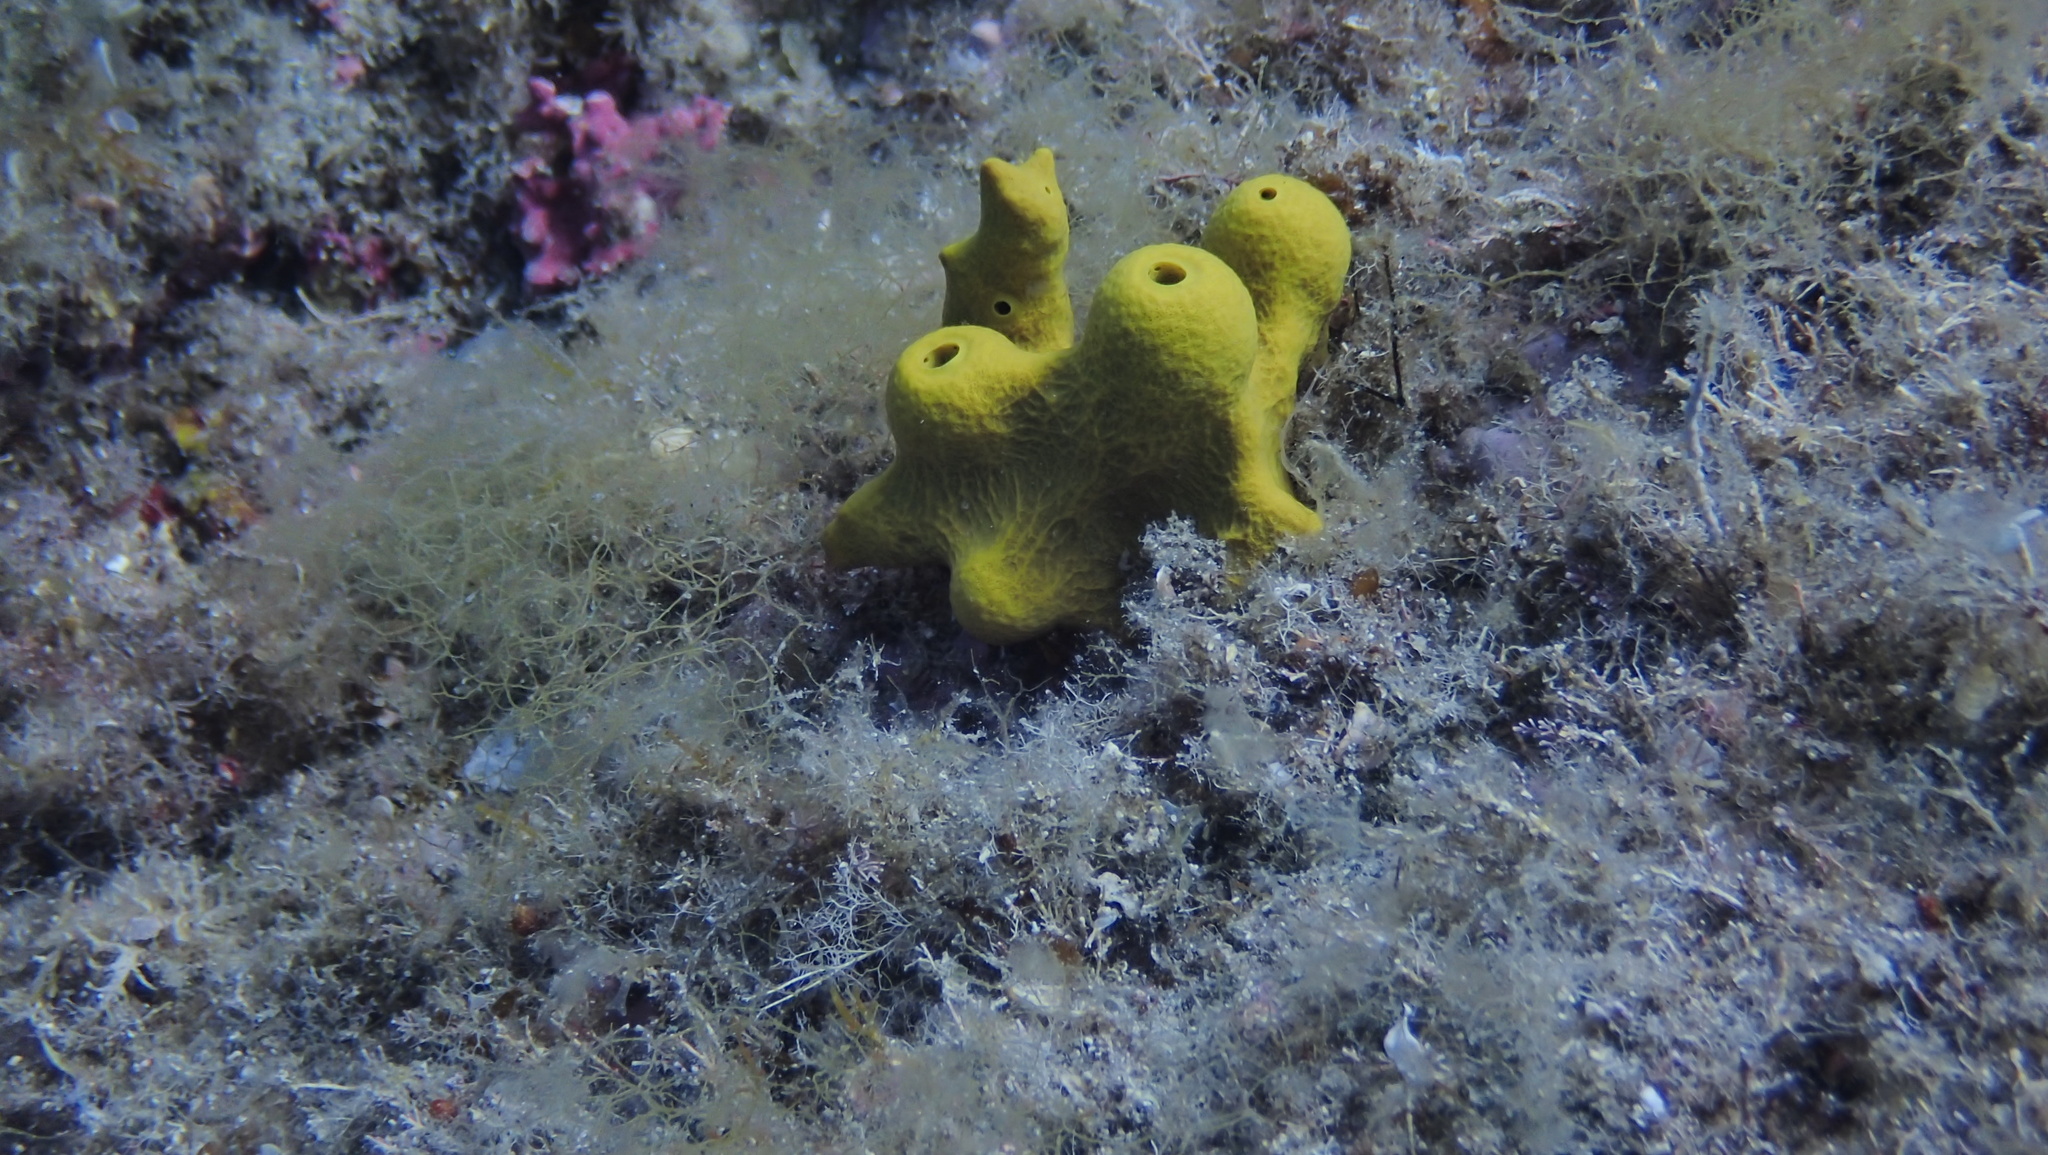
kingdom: Animalia
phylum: Porifera
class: Demospongiae
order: Verongiida
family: Aplysinidae
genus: Aplysina
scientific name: Aplysina aerophoba
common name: Aureate sponge
